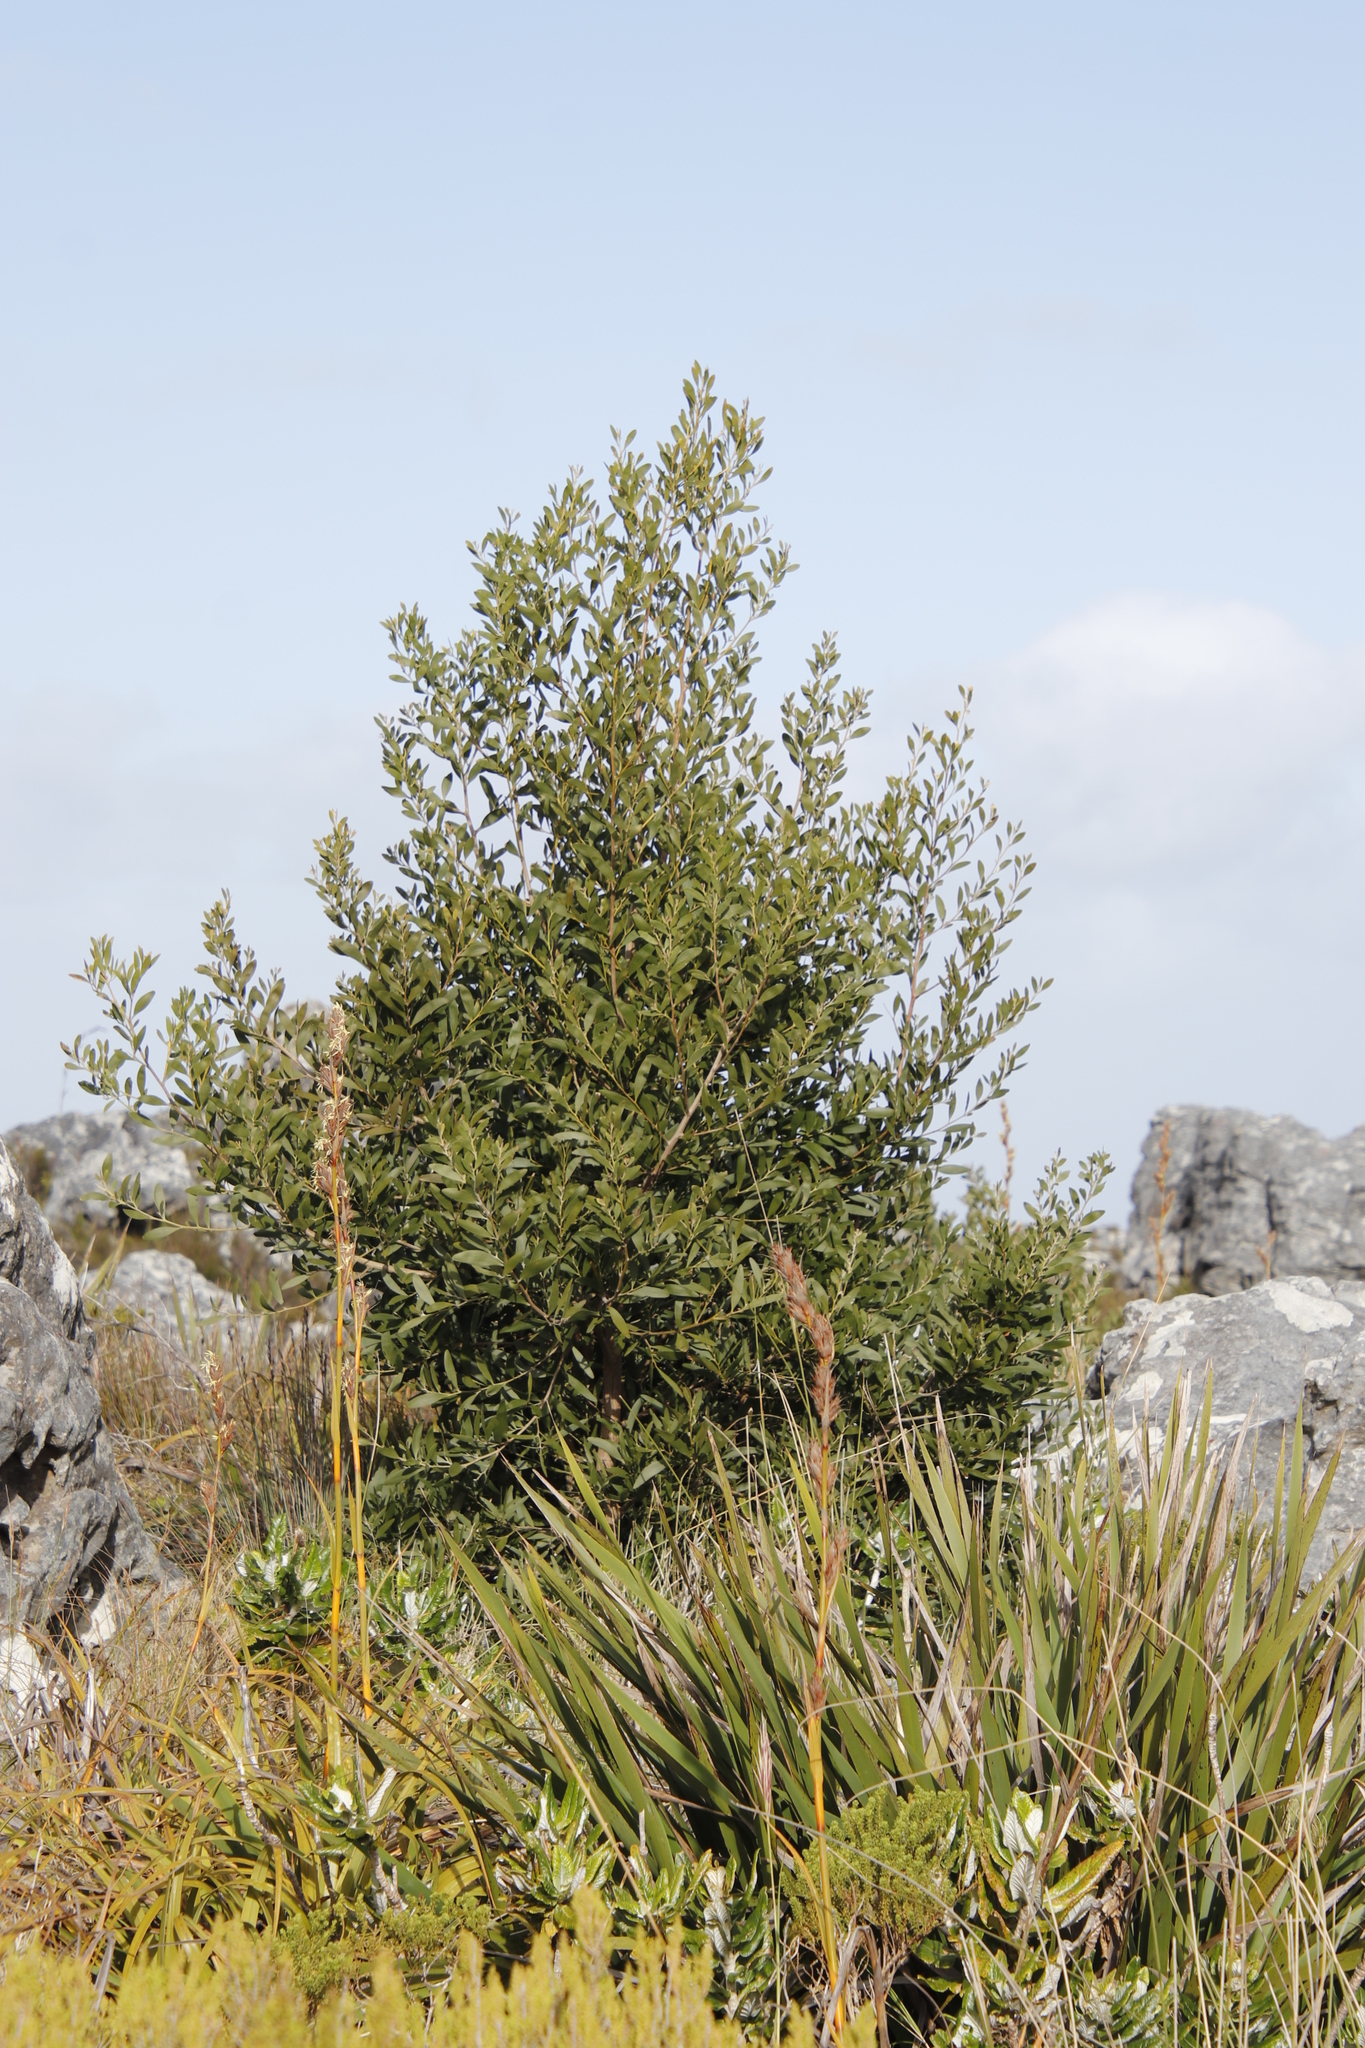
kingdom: Plantae
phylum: Tracheophyta
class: Magnoliopsida
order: Fabales
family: Fabaceae
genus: Acacia
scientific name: Acacia melanoxylon
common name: Blackwood
